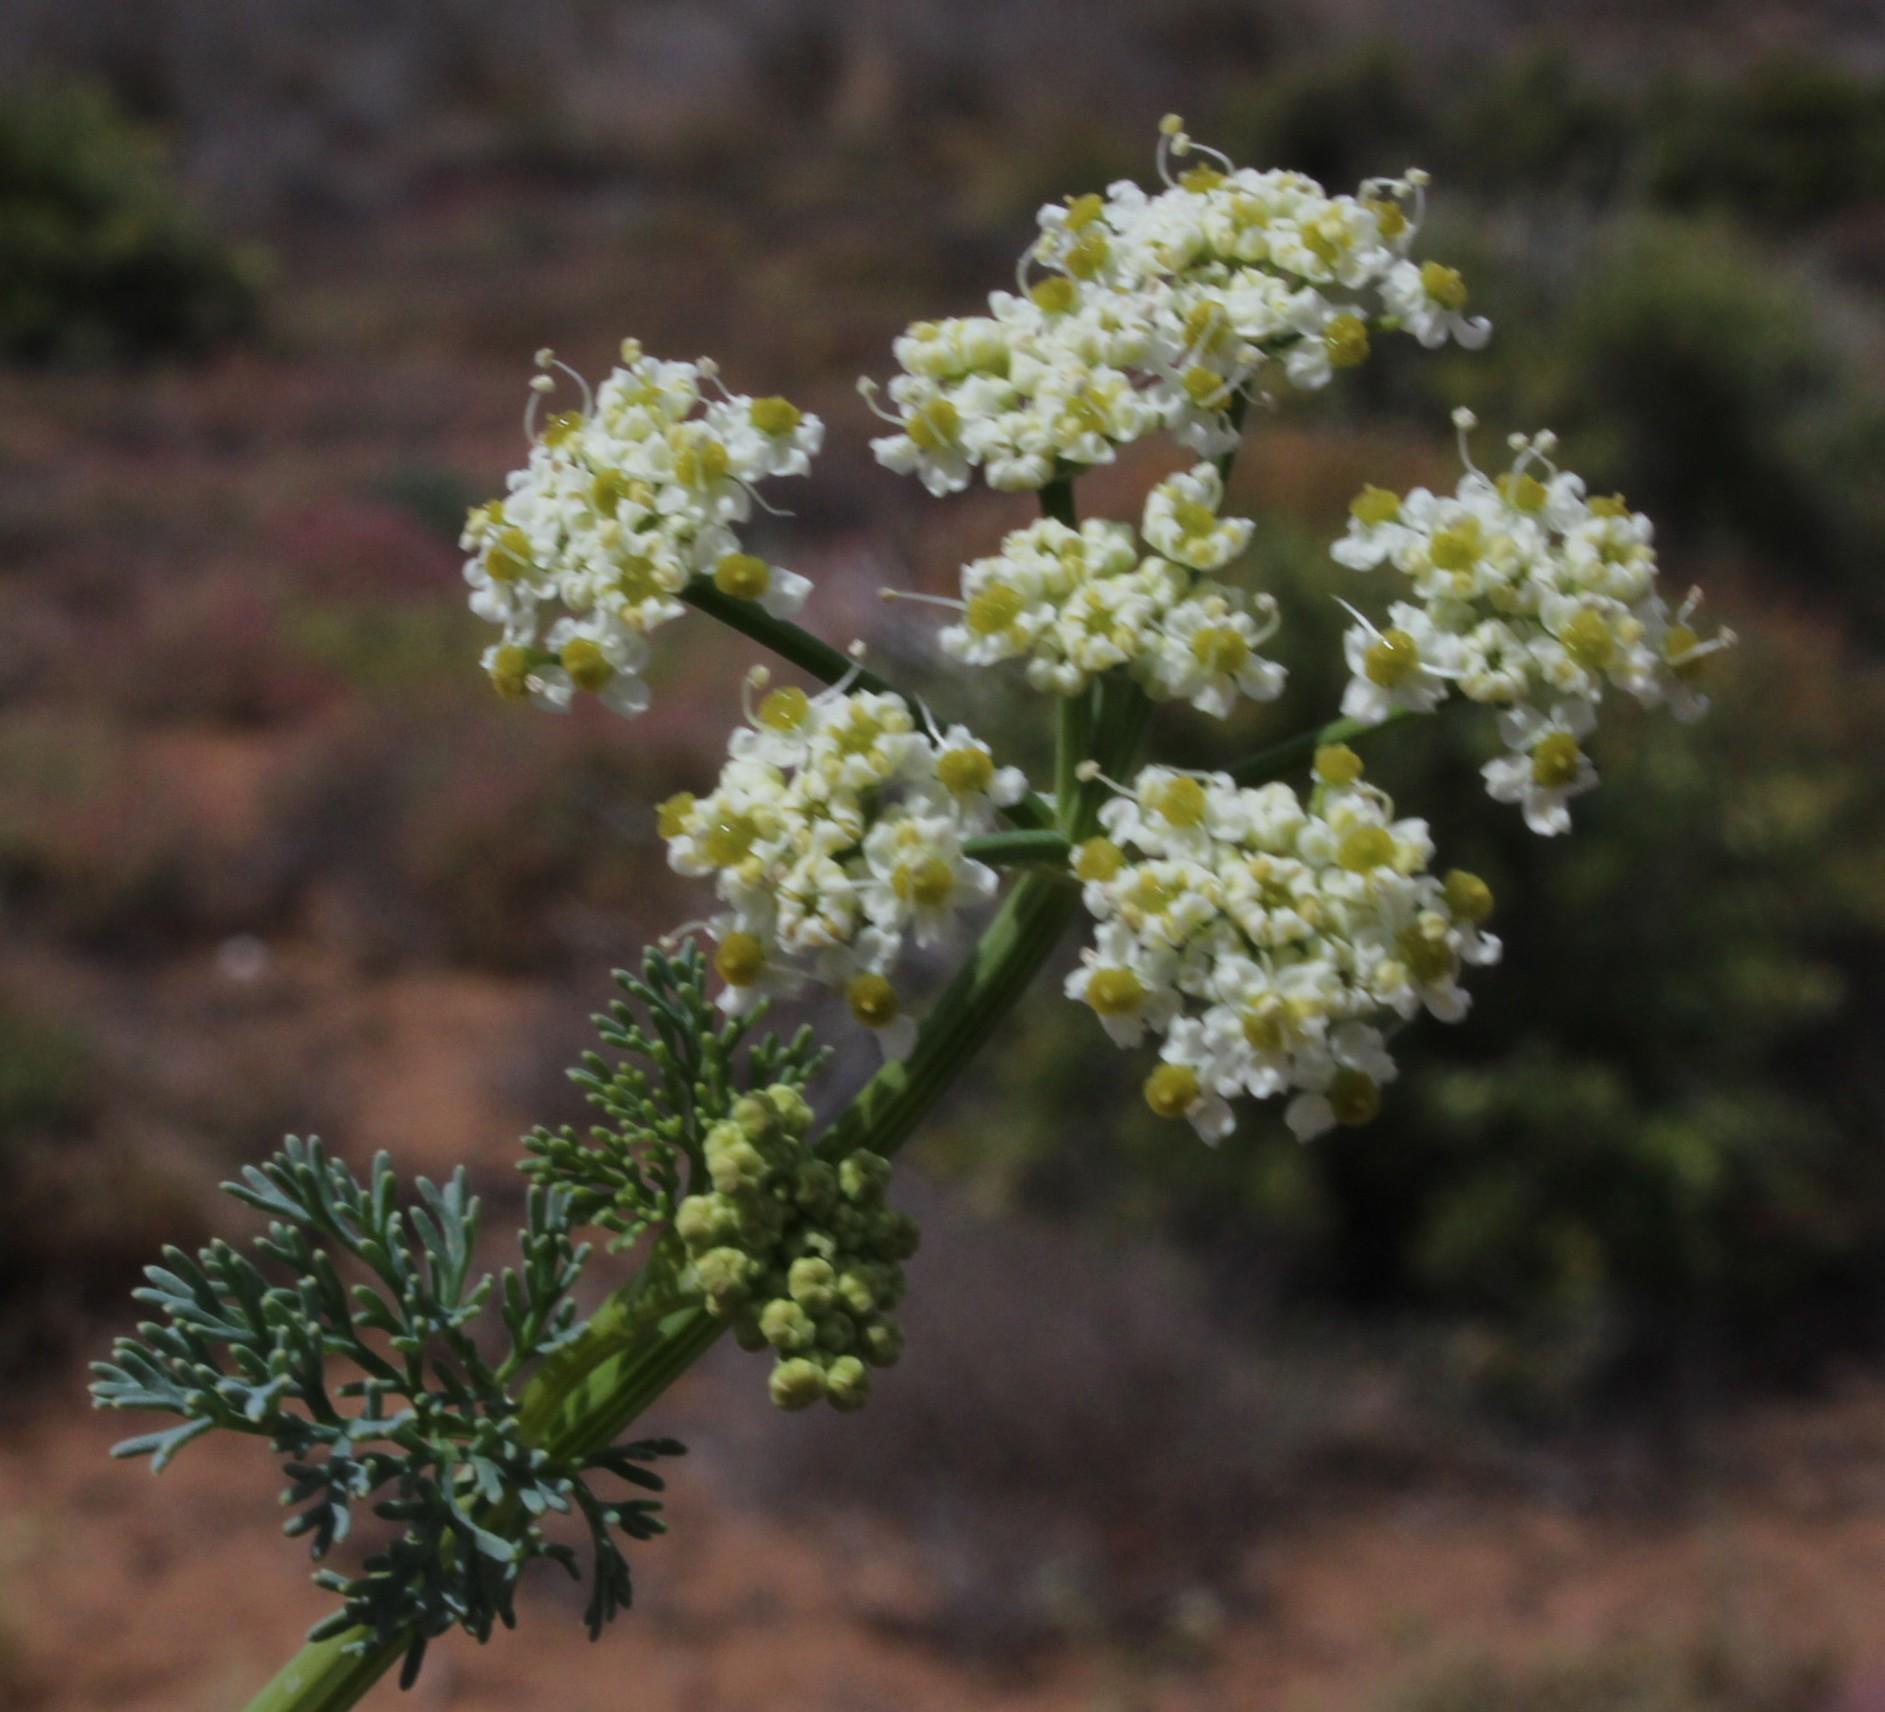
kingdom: Plantae
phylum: Tracheophyta
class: Magnoliopsida
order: Apiales
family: Apiaceae
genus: Capnophyllum
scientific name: Capnophyllum leiocarpon
